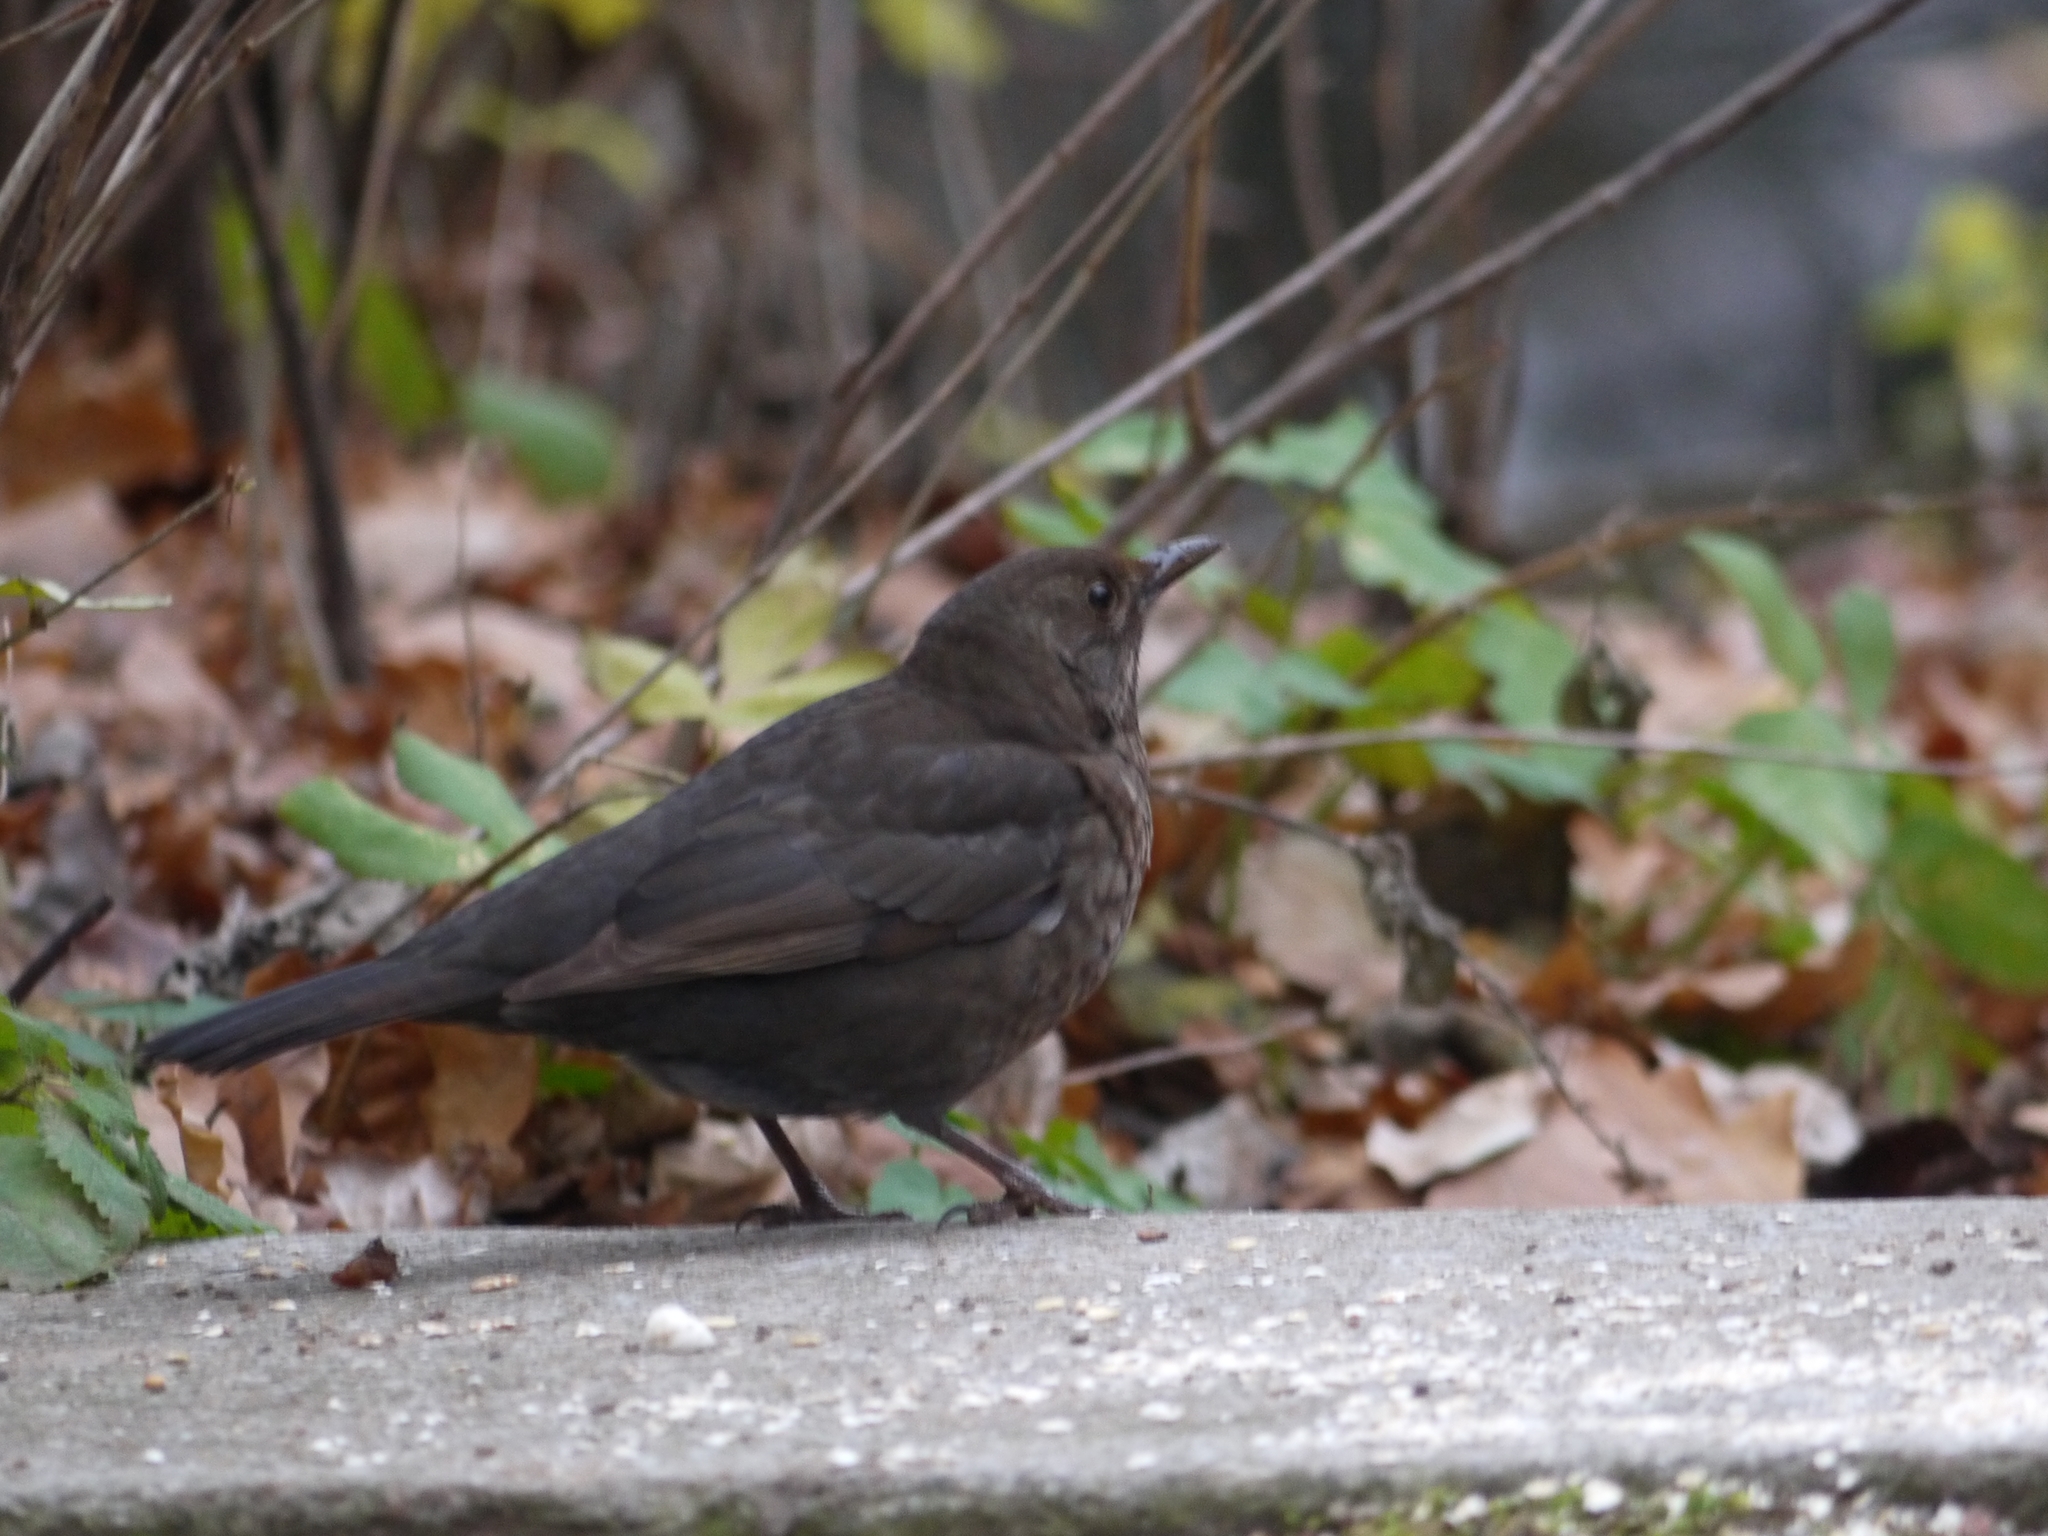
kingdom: Animalia
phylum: Chordata
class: Aves
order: Passeriformes
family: Turdidae
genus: Turdus
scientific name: Turdus merula
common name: Common blackbird
